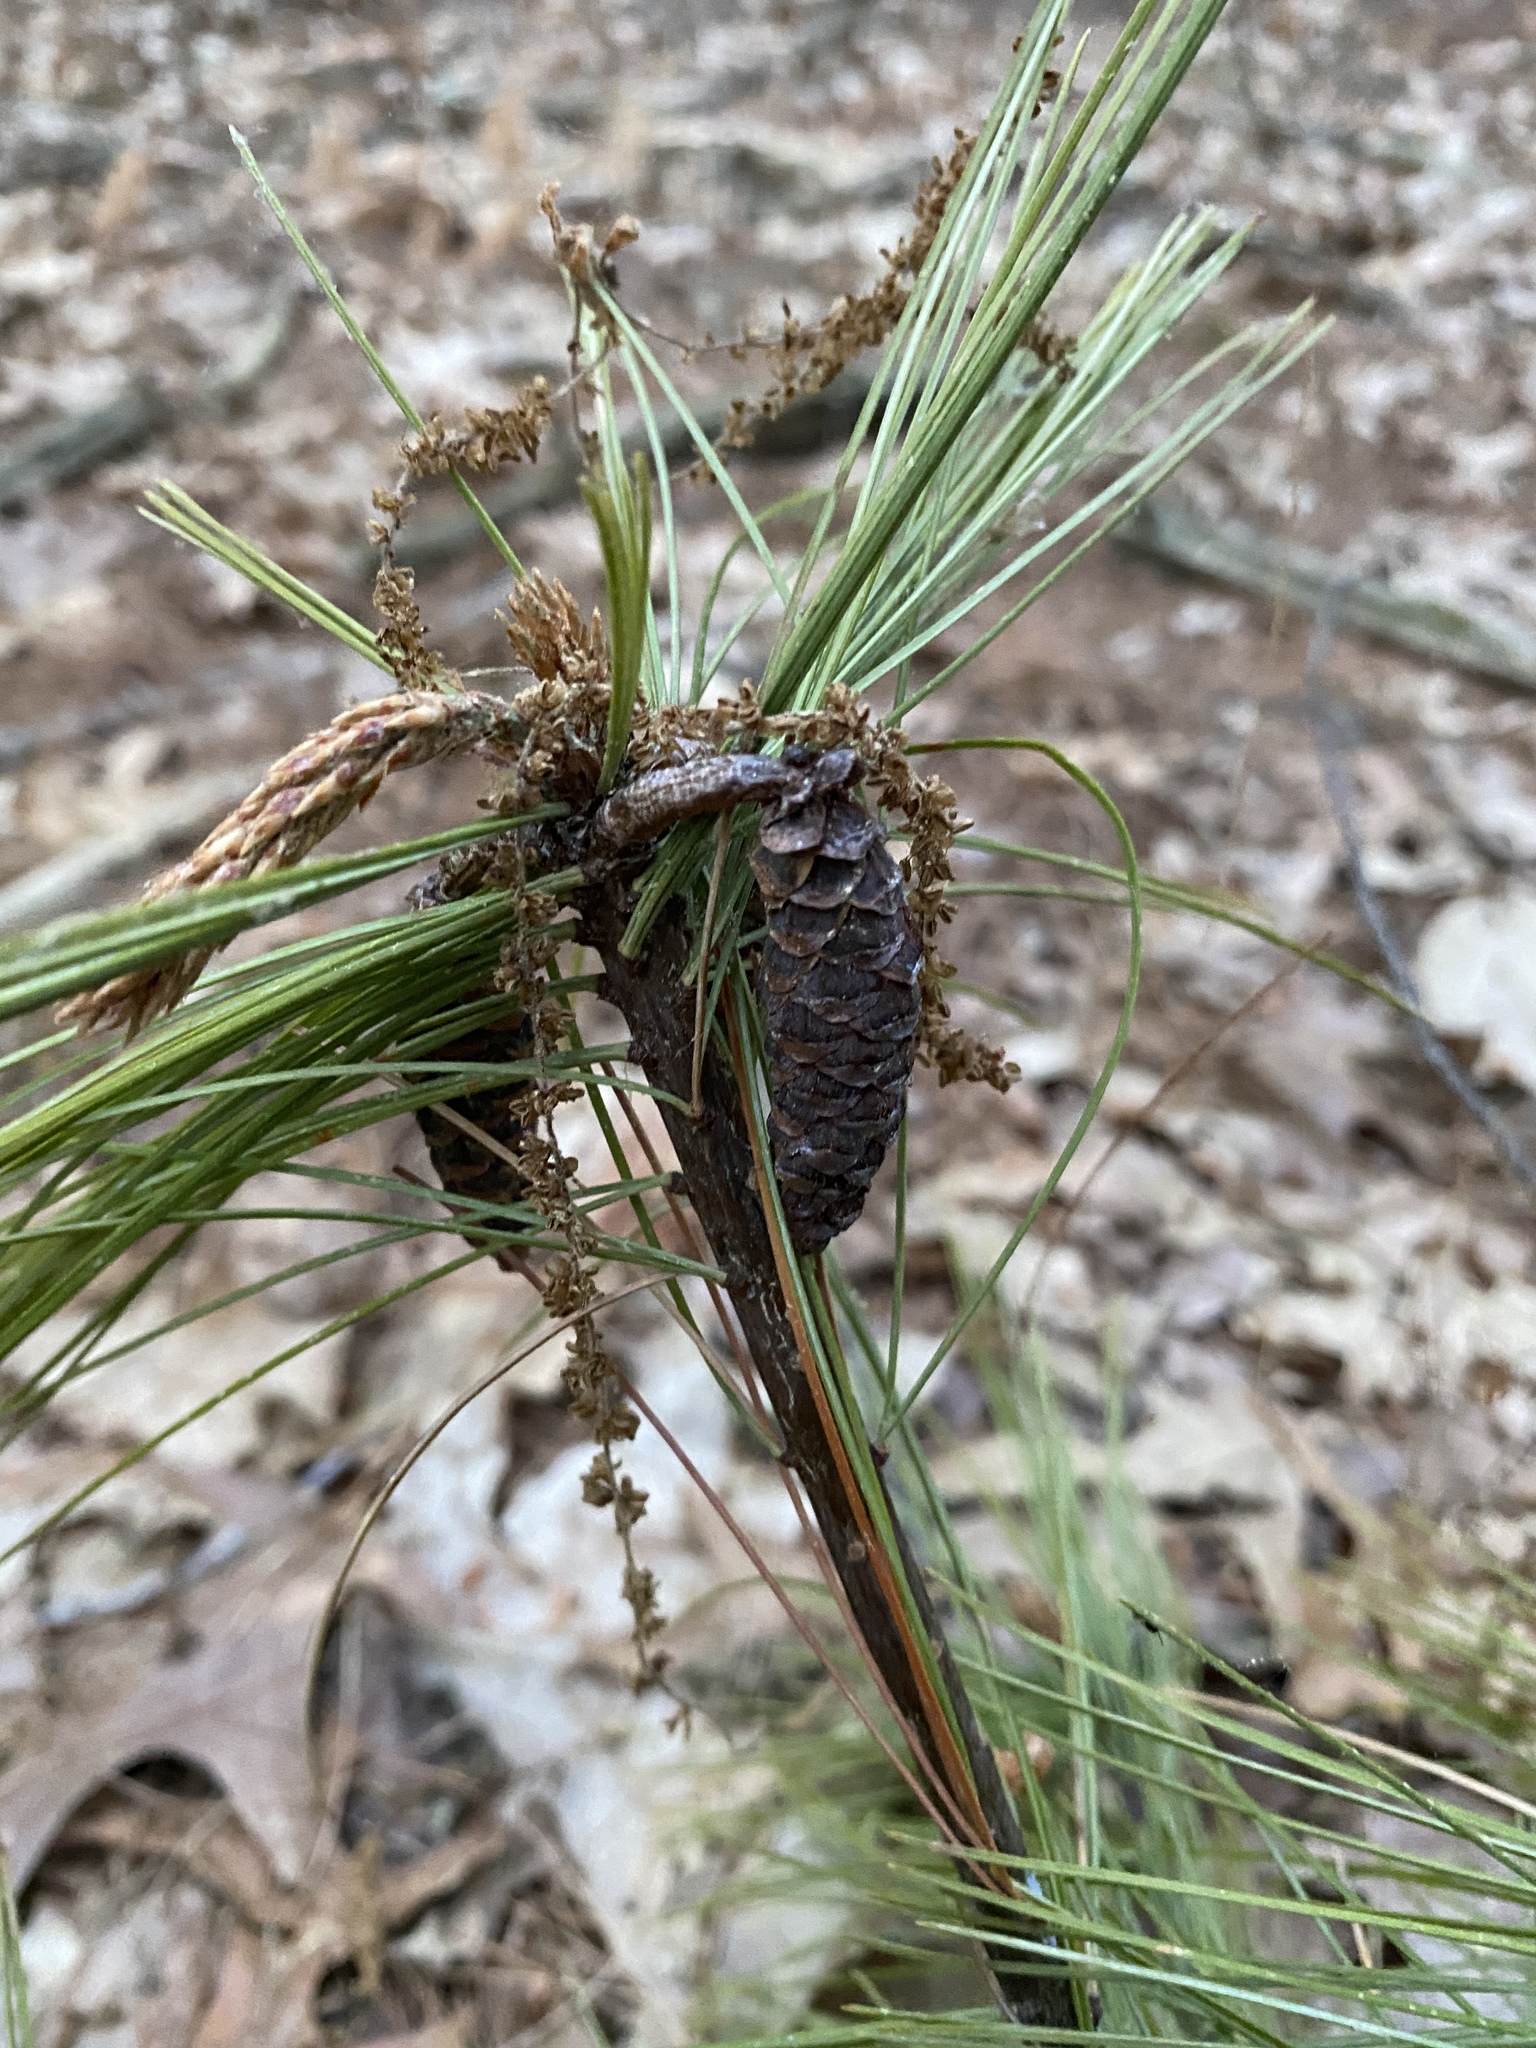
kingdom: Plantae
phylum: Tracheophyta
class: Pinopsida
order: Pinales
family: Pinaceae
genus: Pinus
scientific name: Pinus rigida
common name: Pitch pine
